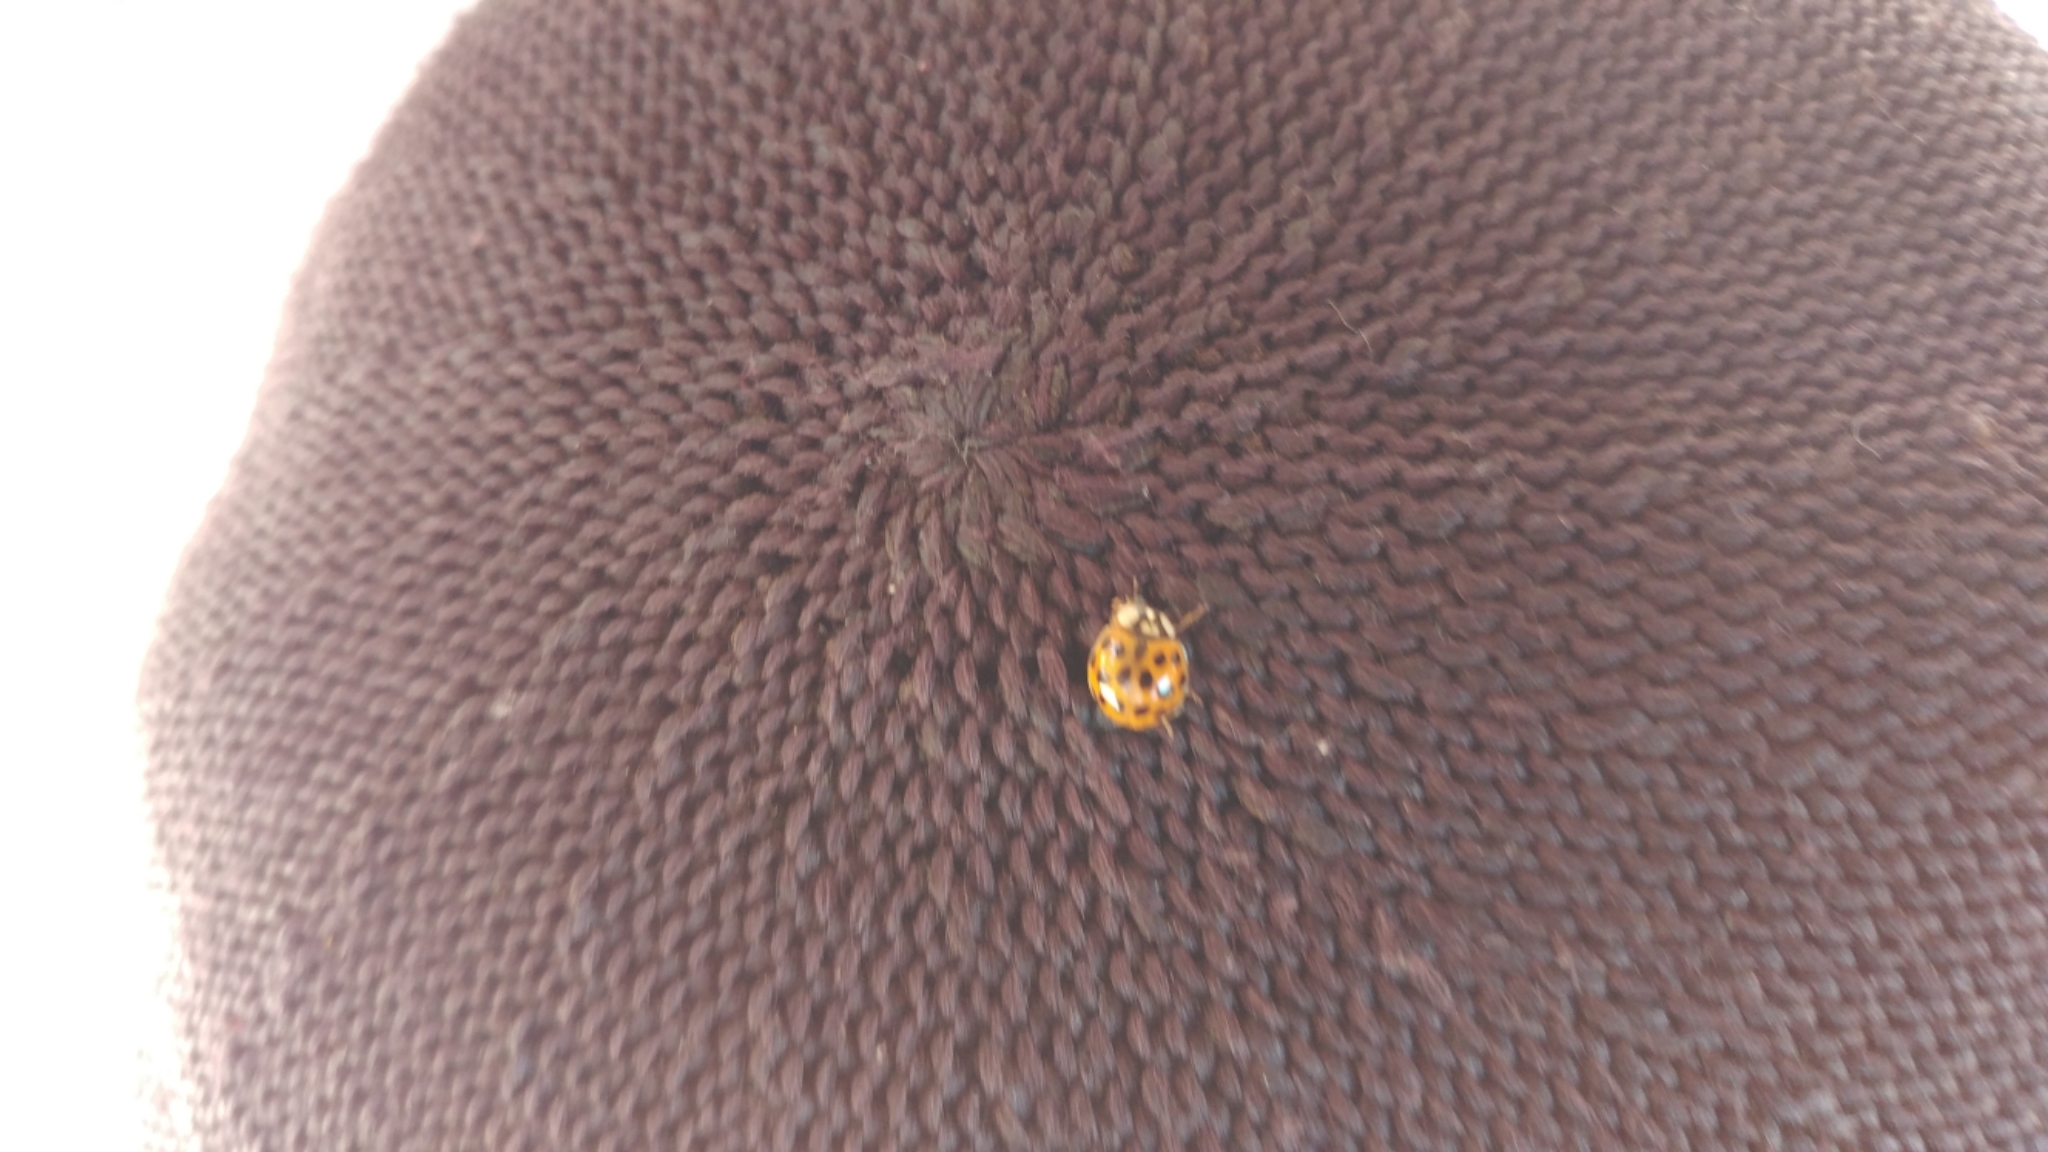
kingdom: Animalia
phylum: Arthropoda
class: Insecta
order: Coleoptera
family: Coccinellidae
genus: Harmonia
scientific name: Harmonia axyridis
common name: Harlequin ladybird
